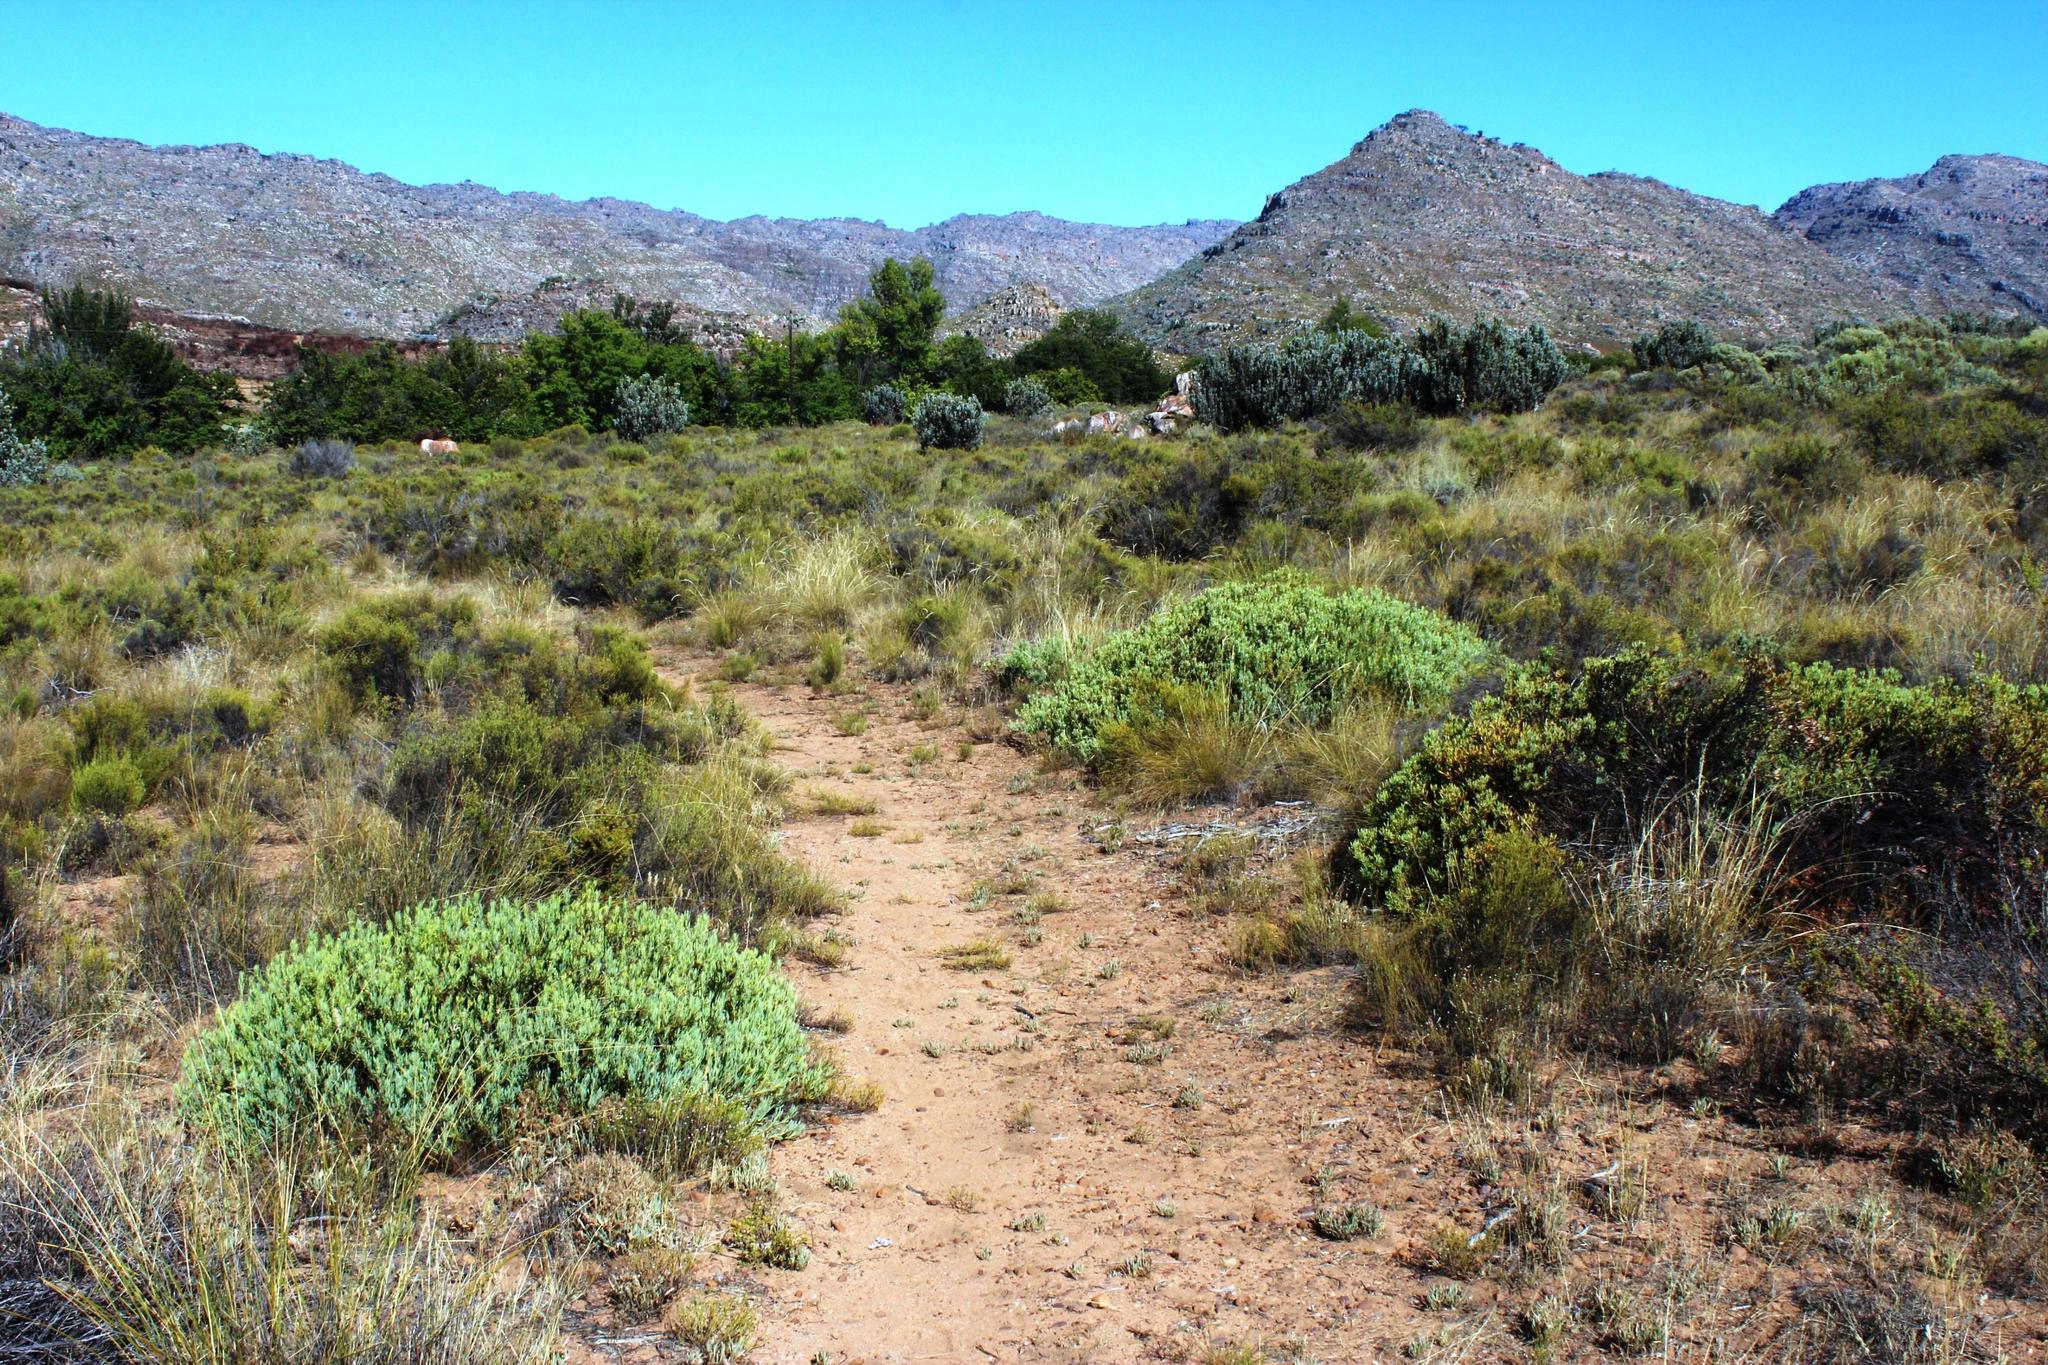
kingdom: Plantae
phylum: Tracheophyta
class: Magnoliopsida
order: Proteales
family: Proteaceae
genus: Leucadendron
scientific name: Leucadendron glaberrimum
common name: Common oily conebush
